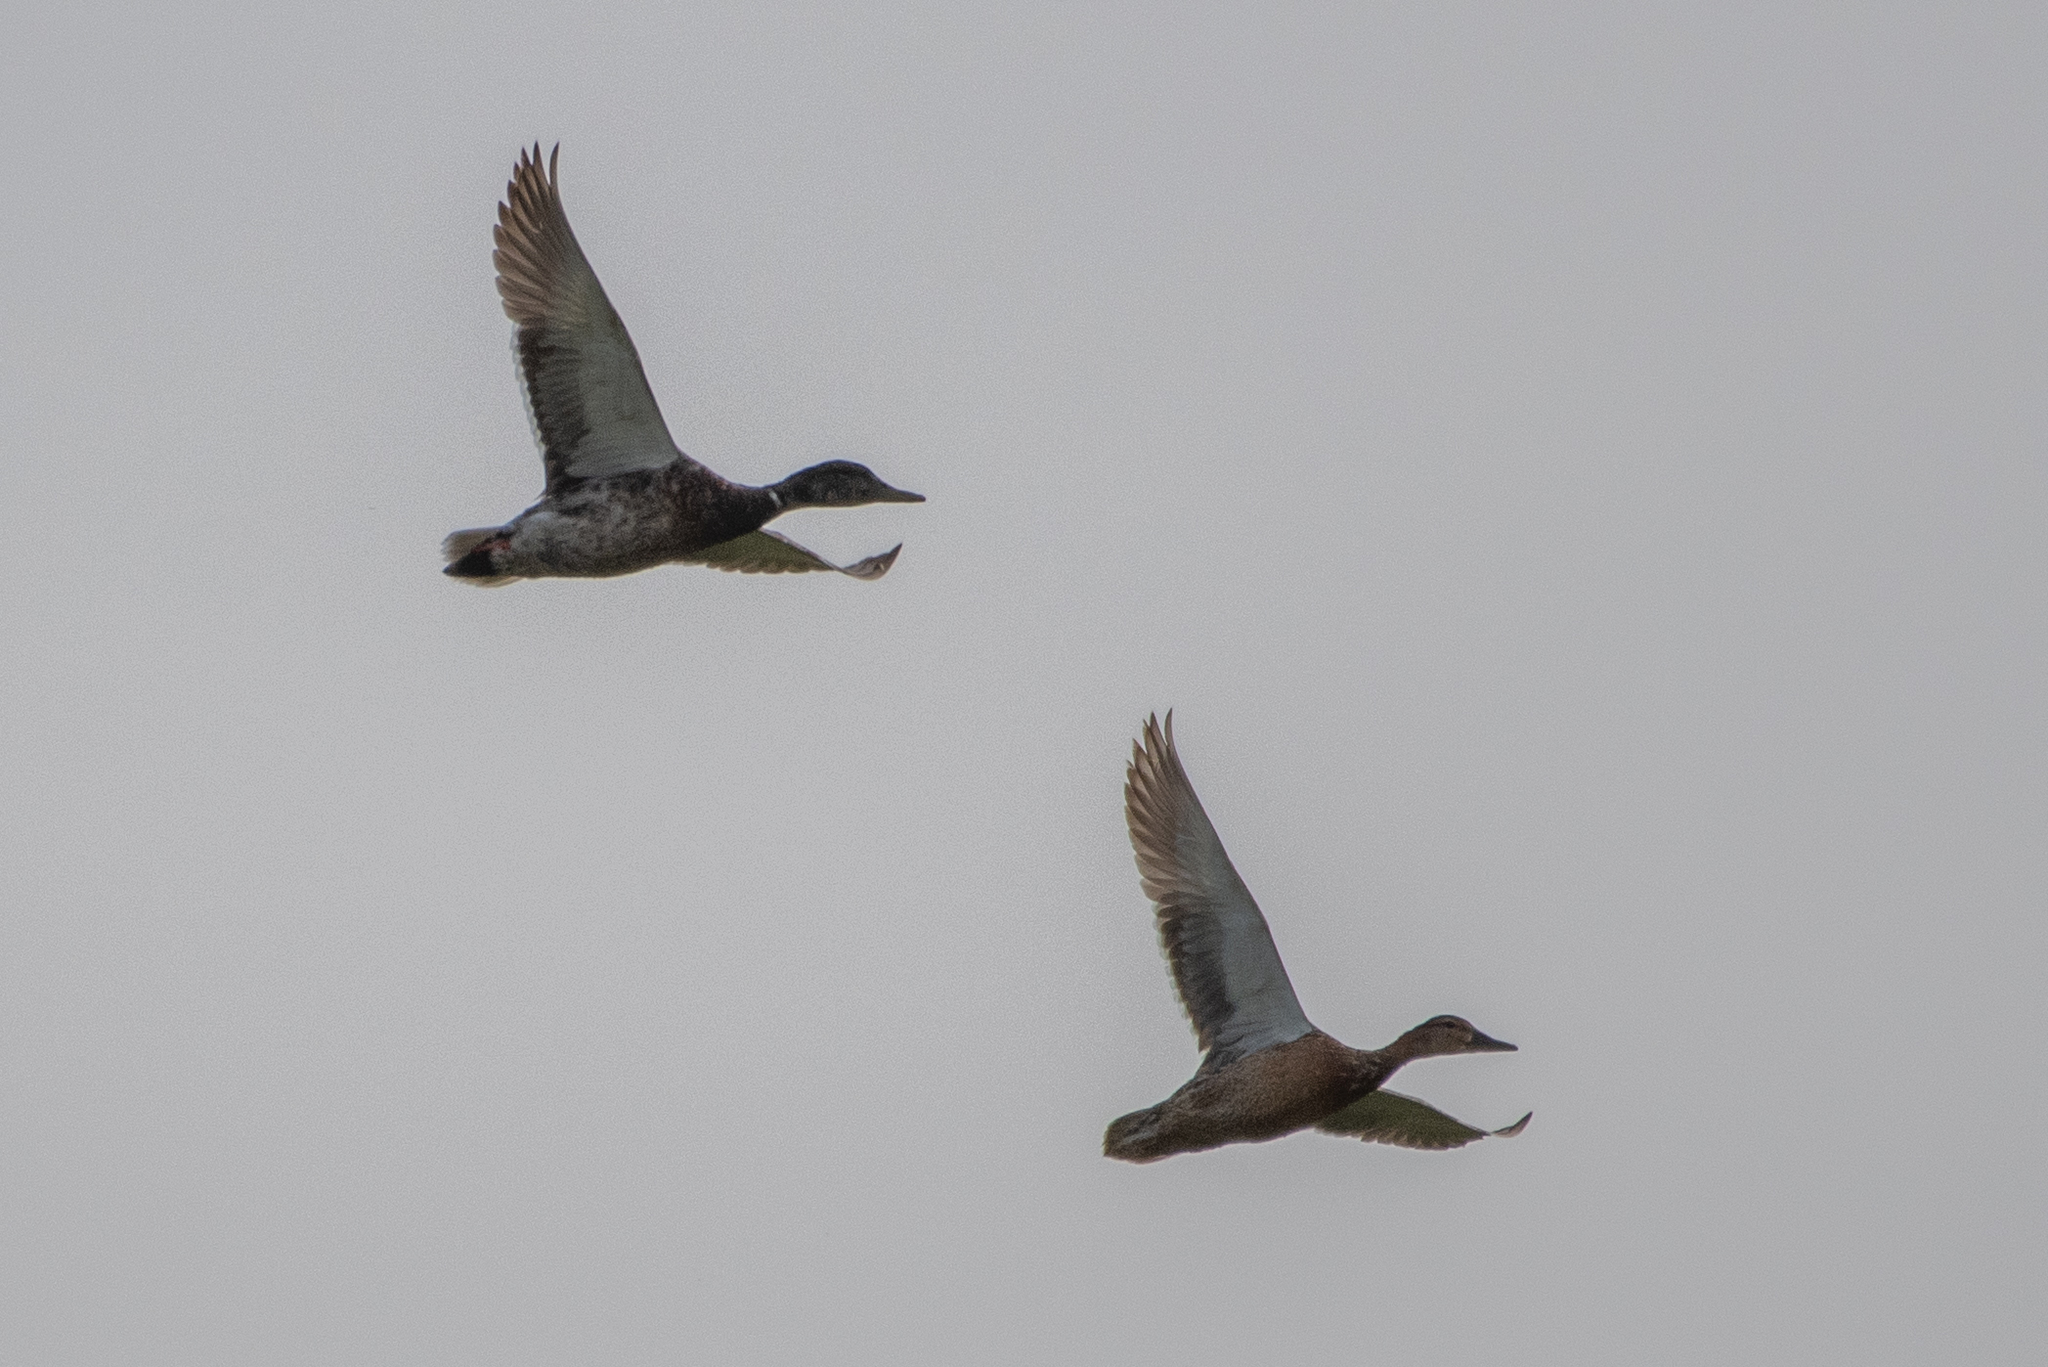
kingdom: Animalia
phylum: Chordata
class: Aves
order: Anseriformes
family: Anatidae
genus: Anas
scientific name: Anas platyrhynchos
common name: Mallard
